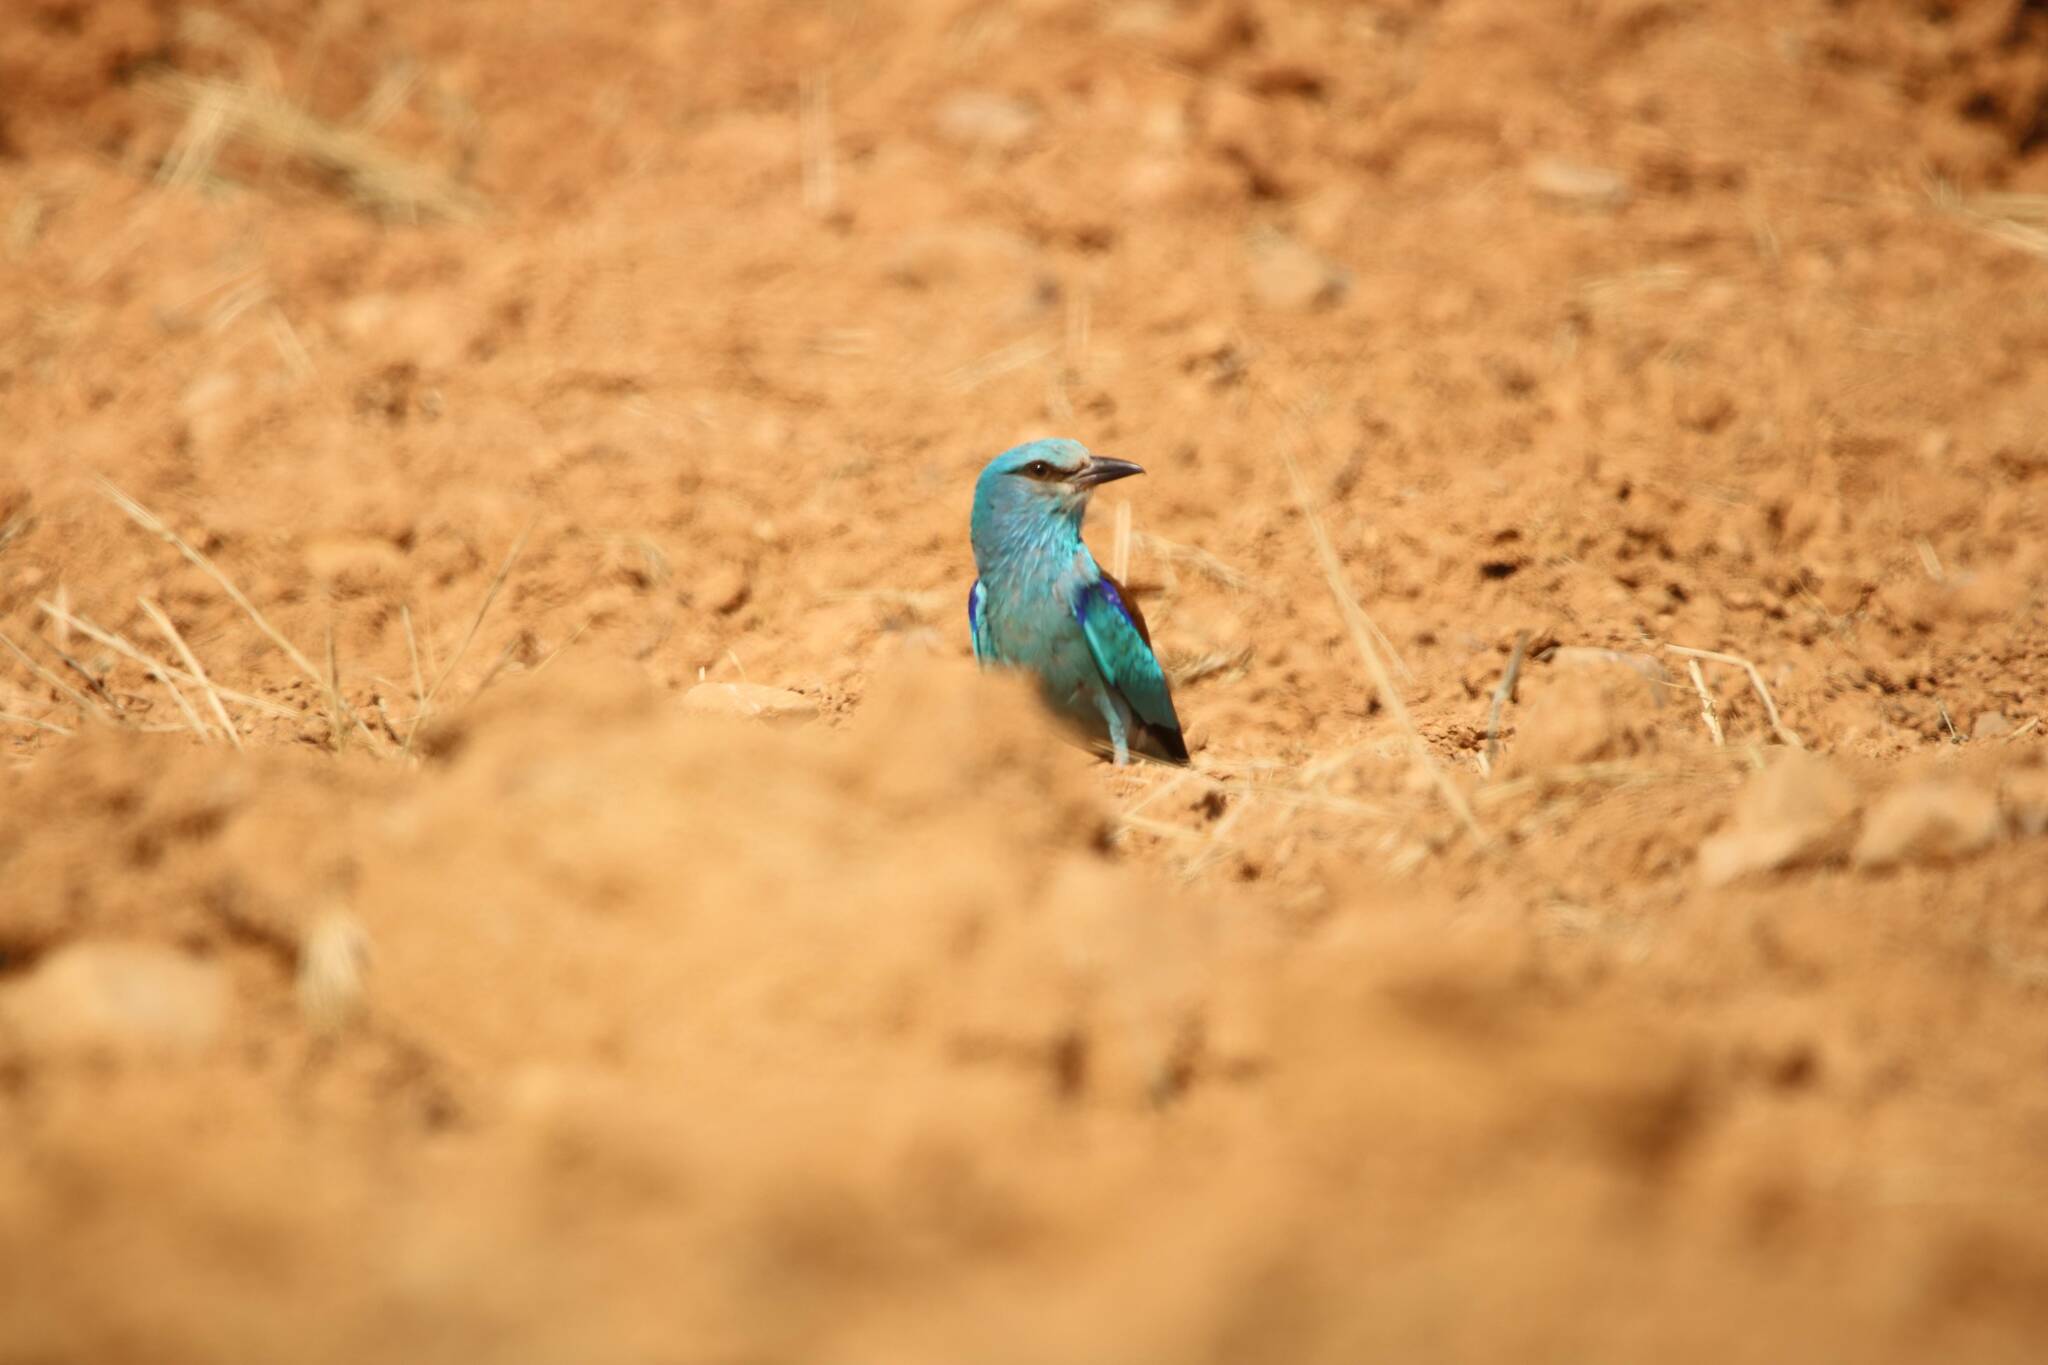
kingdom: Animalia
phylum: Chordata
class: Aves
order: Coraciiformes
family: Coraciidae
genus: Coracias
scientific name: Coracias garrulus
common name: European roller
